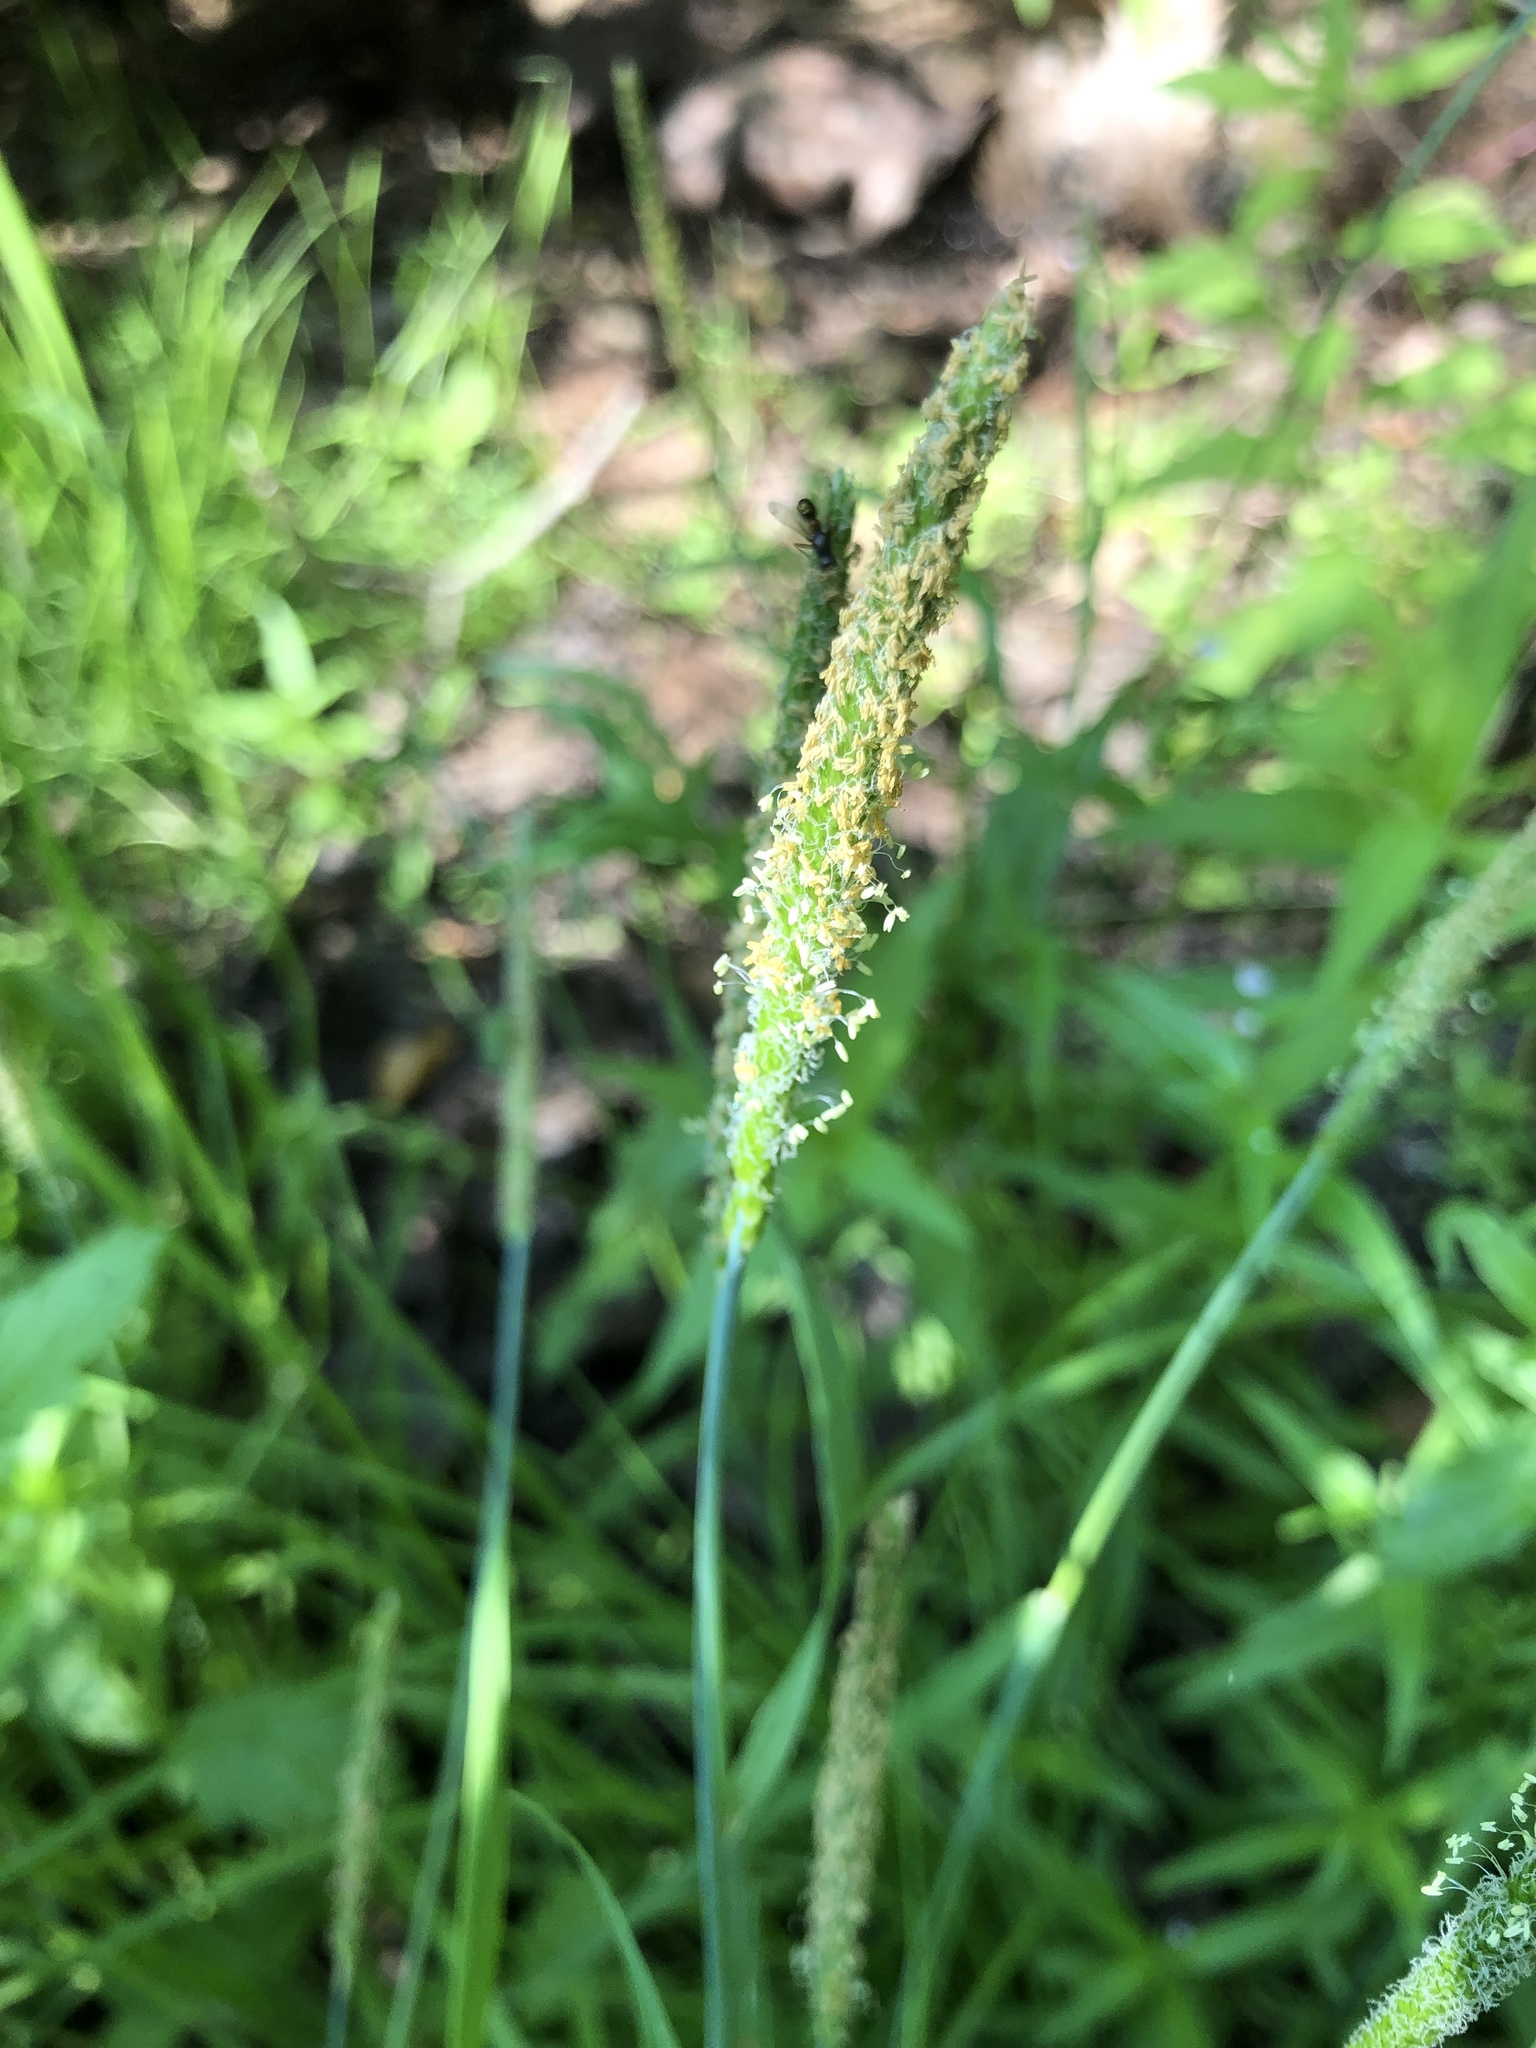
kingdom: Plantae
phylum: Tracheophyta
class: Liliopsida
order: Poales
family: Poaceae
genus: Alopecurus
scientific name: Alopecurus aequalis
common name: Orange foxtail
